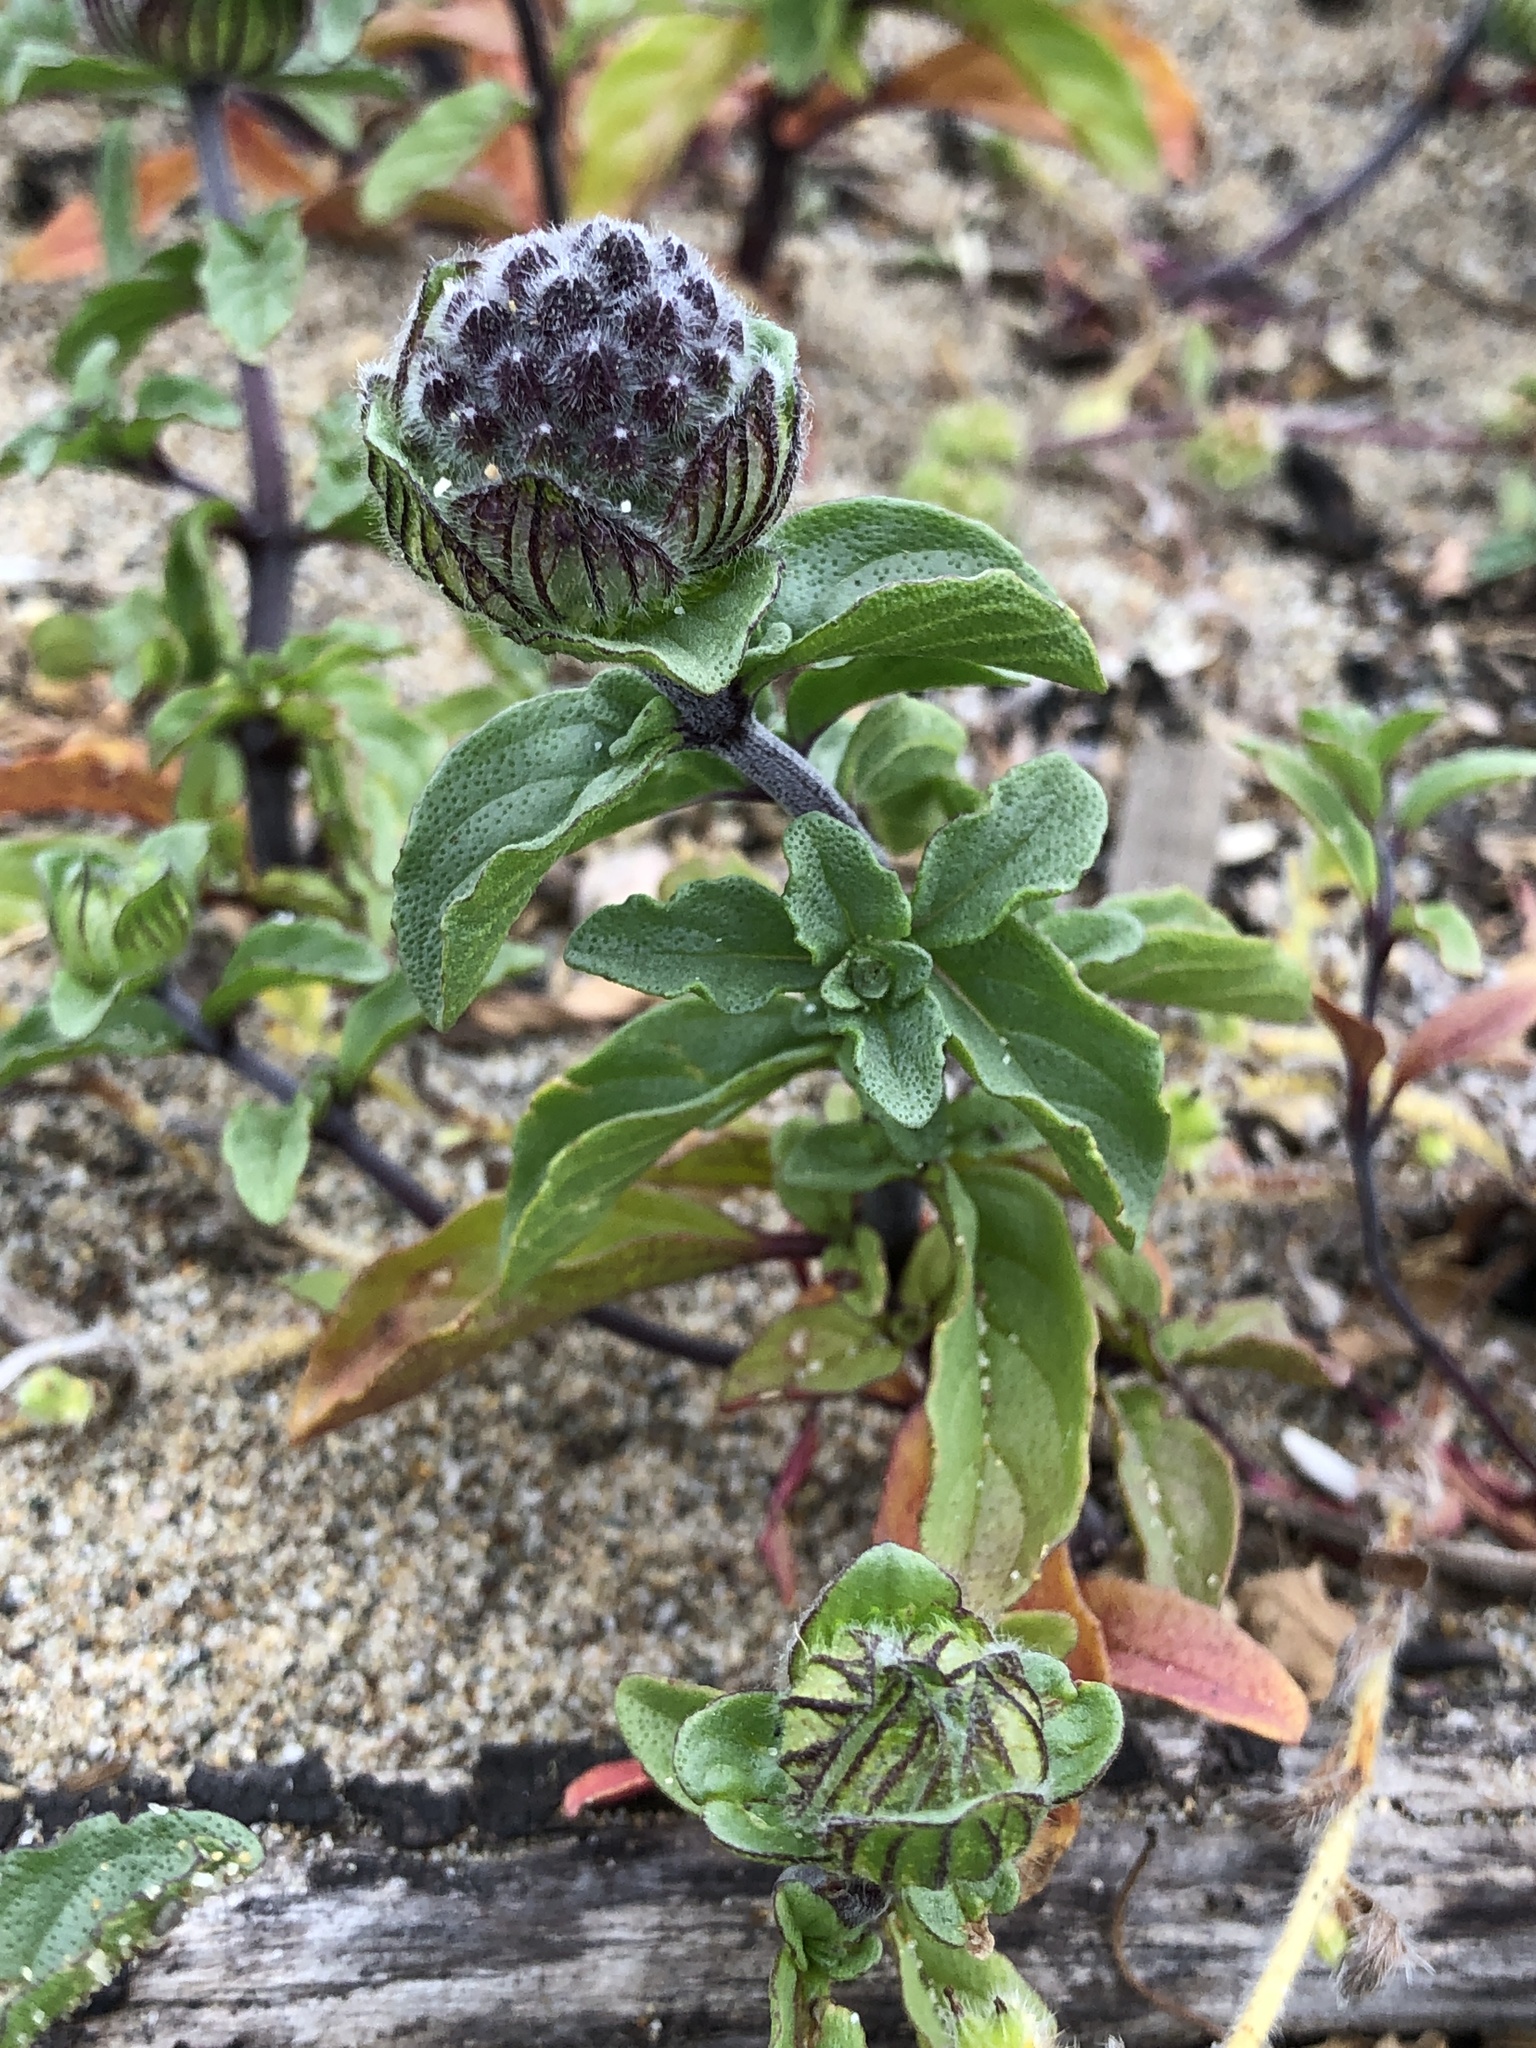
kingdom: Plantae
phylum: Tracheophyta
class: Magnoliopsida
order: Lamiales
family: Lamiaceae
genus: Monardella
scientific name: Monardella sinuata
